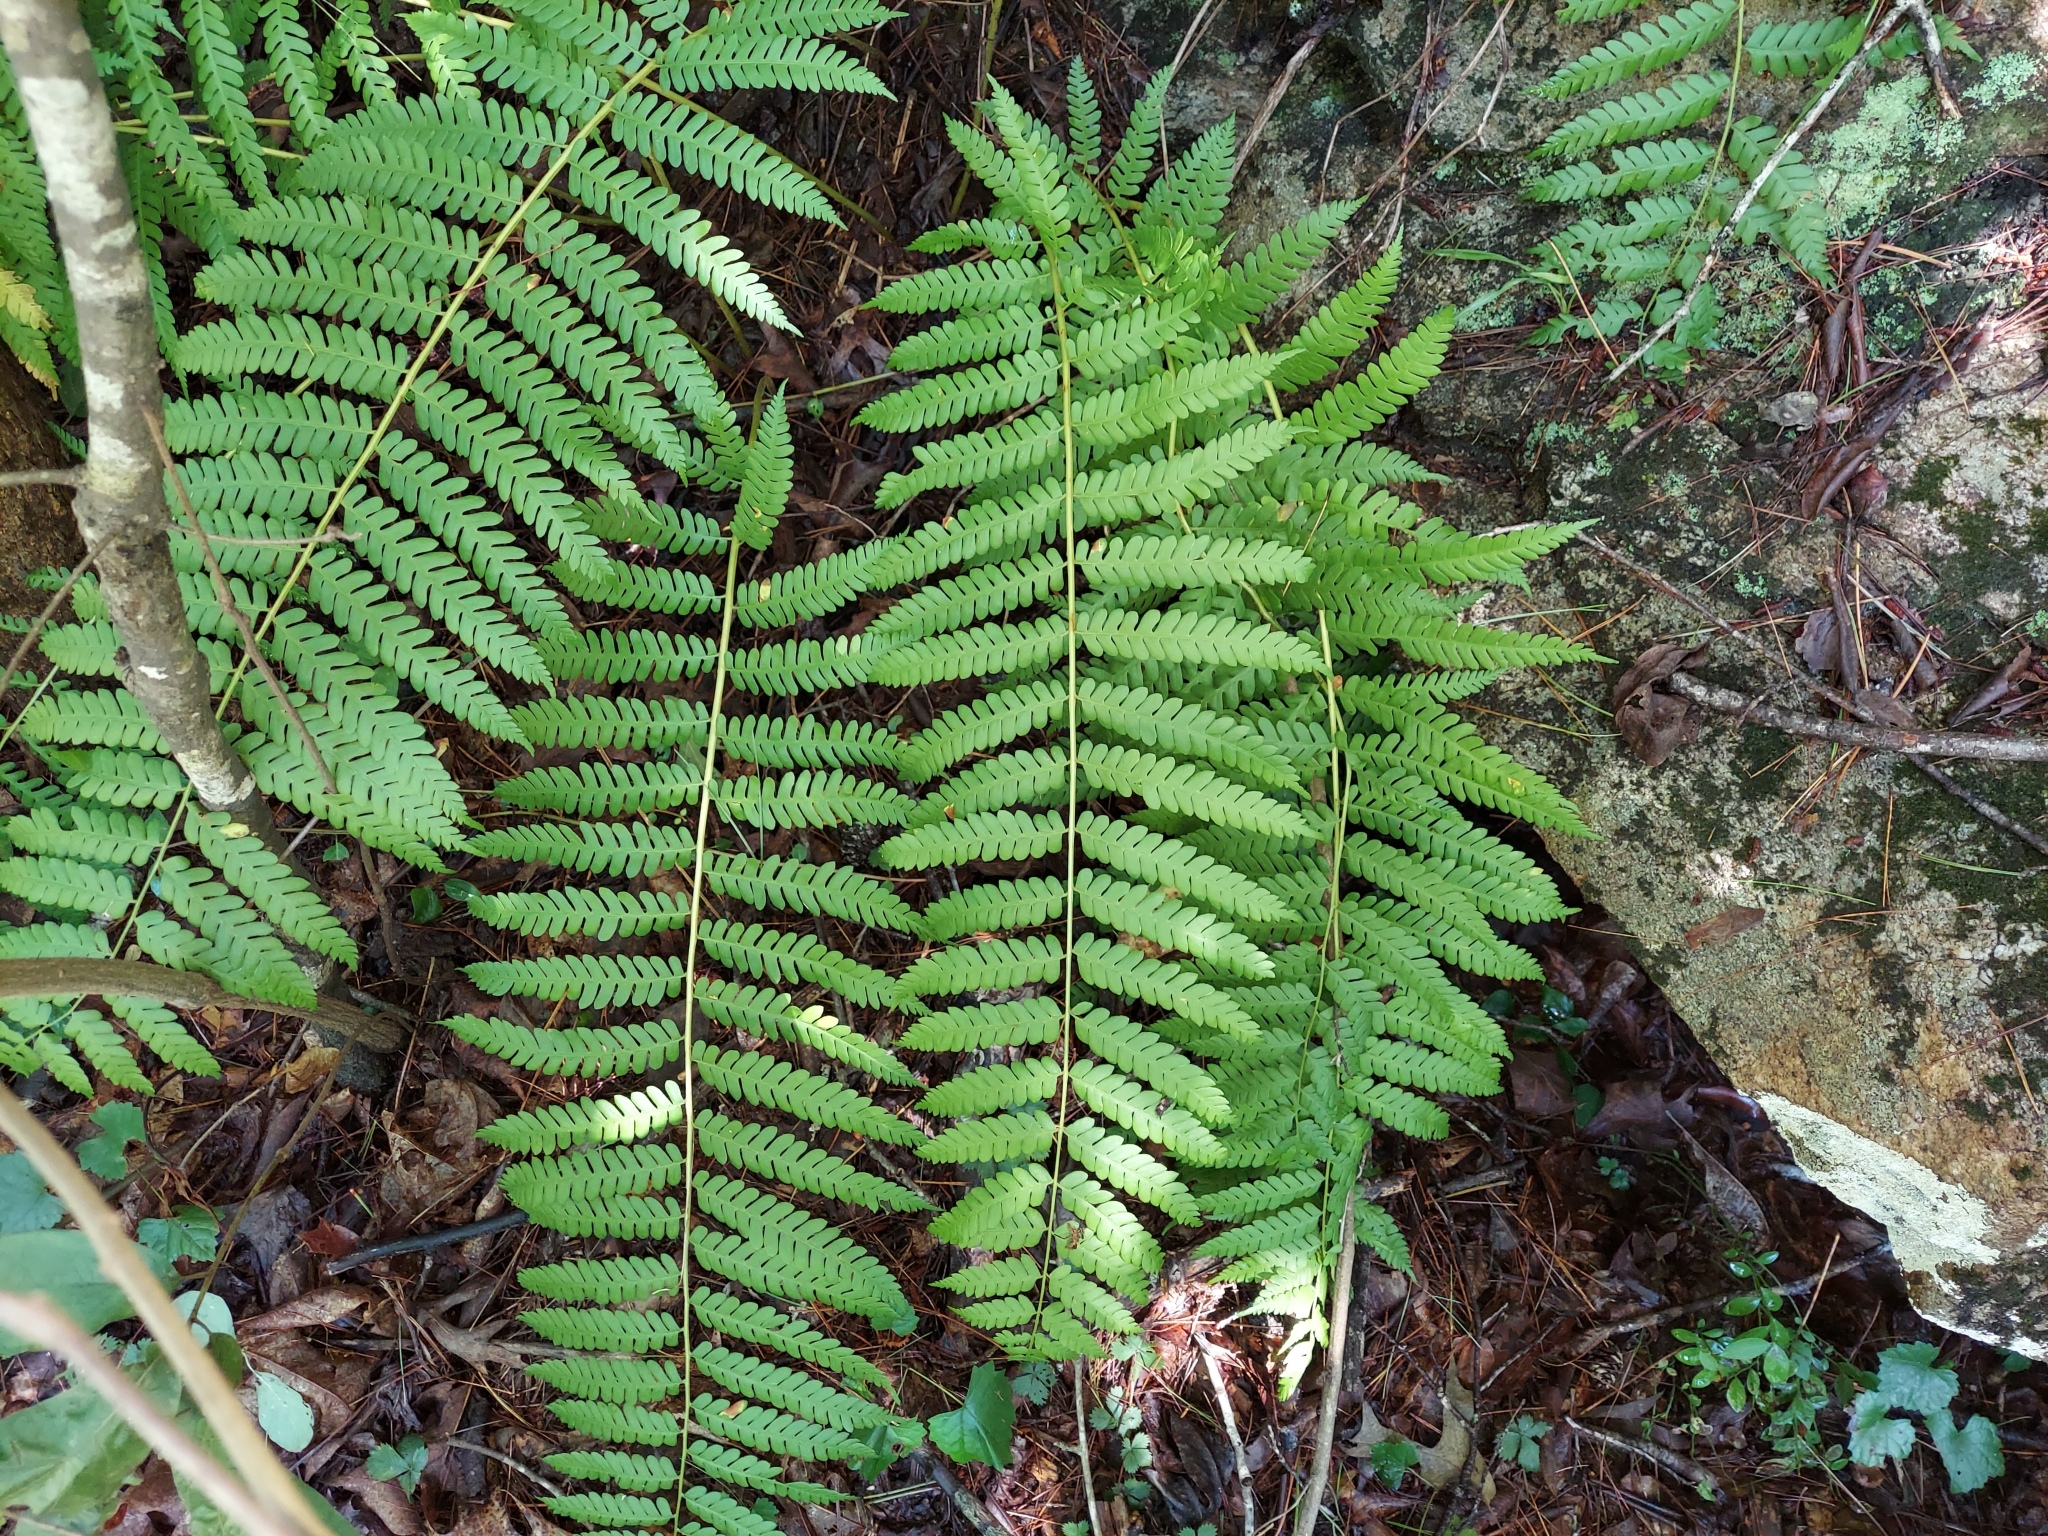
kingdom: Plantae
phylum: Tracheophyta
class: Polypodiopsida
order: Osmundales
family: Osmundaceae
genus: Osmundastrum
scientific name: Osmundastrum cinnamomeum
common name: Cinnamon fern
